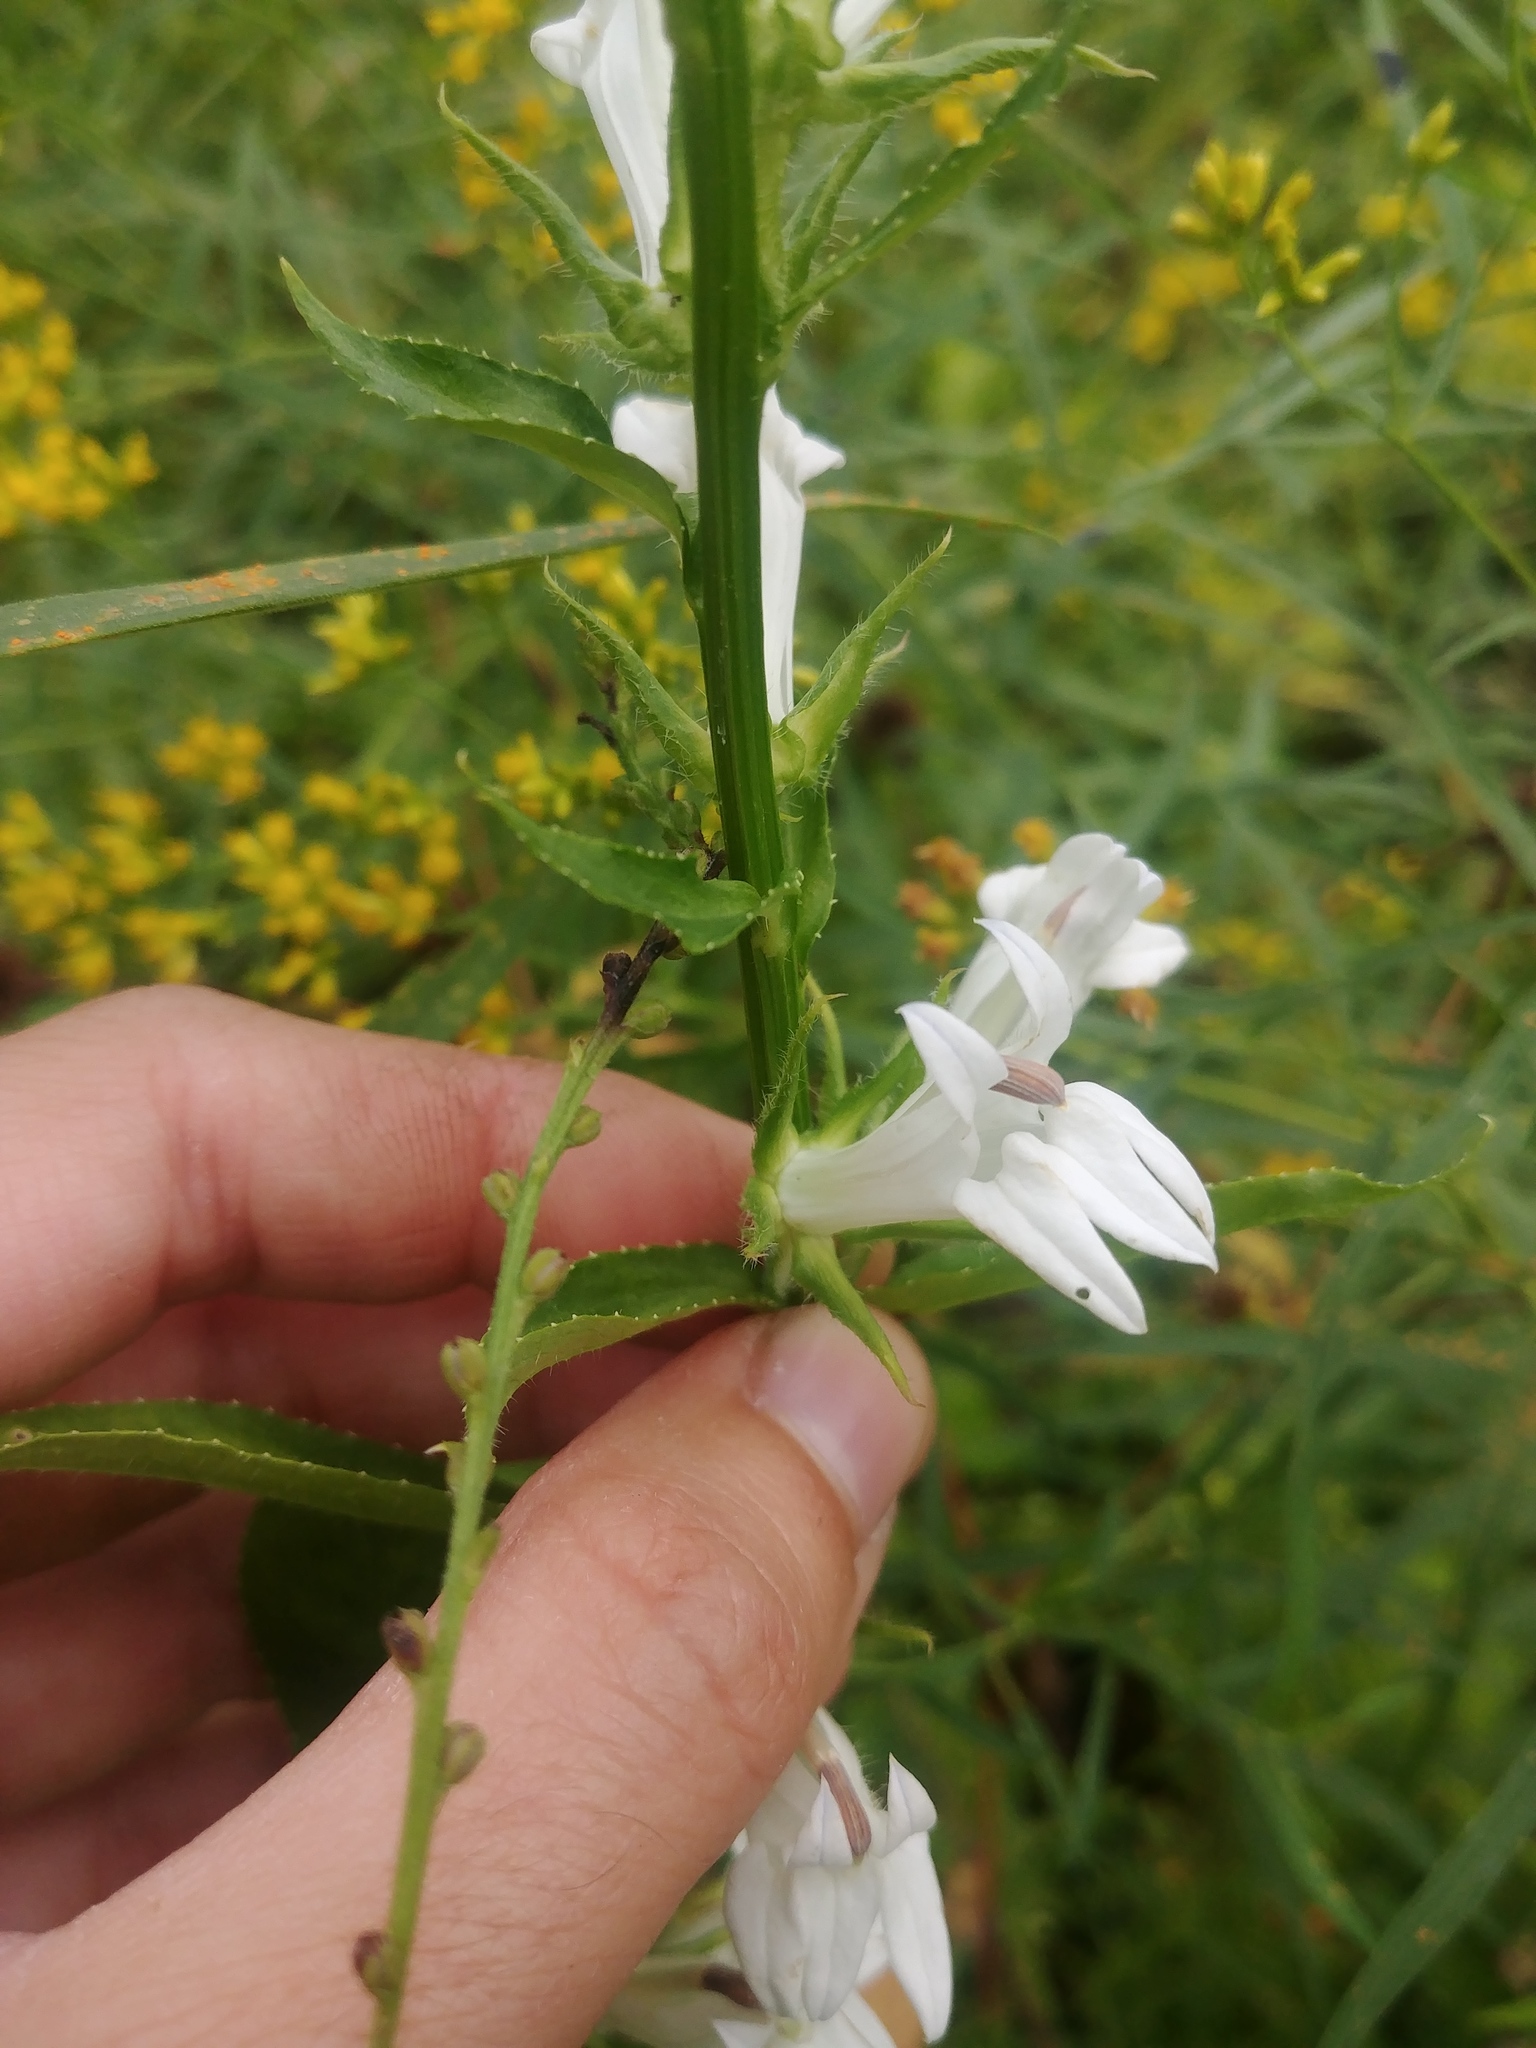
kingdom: Plantae
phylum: Tracheophyta
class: Magnoliopsida
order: Asterales
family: Campanulaceae
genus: Lobelia
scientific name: Lobelia siphilitica
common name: Great lobelia
